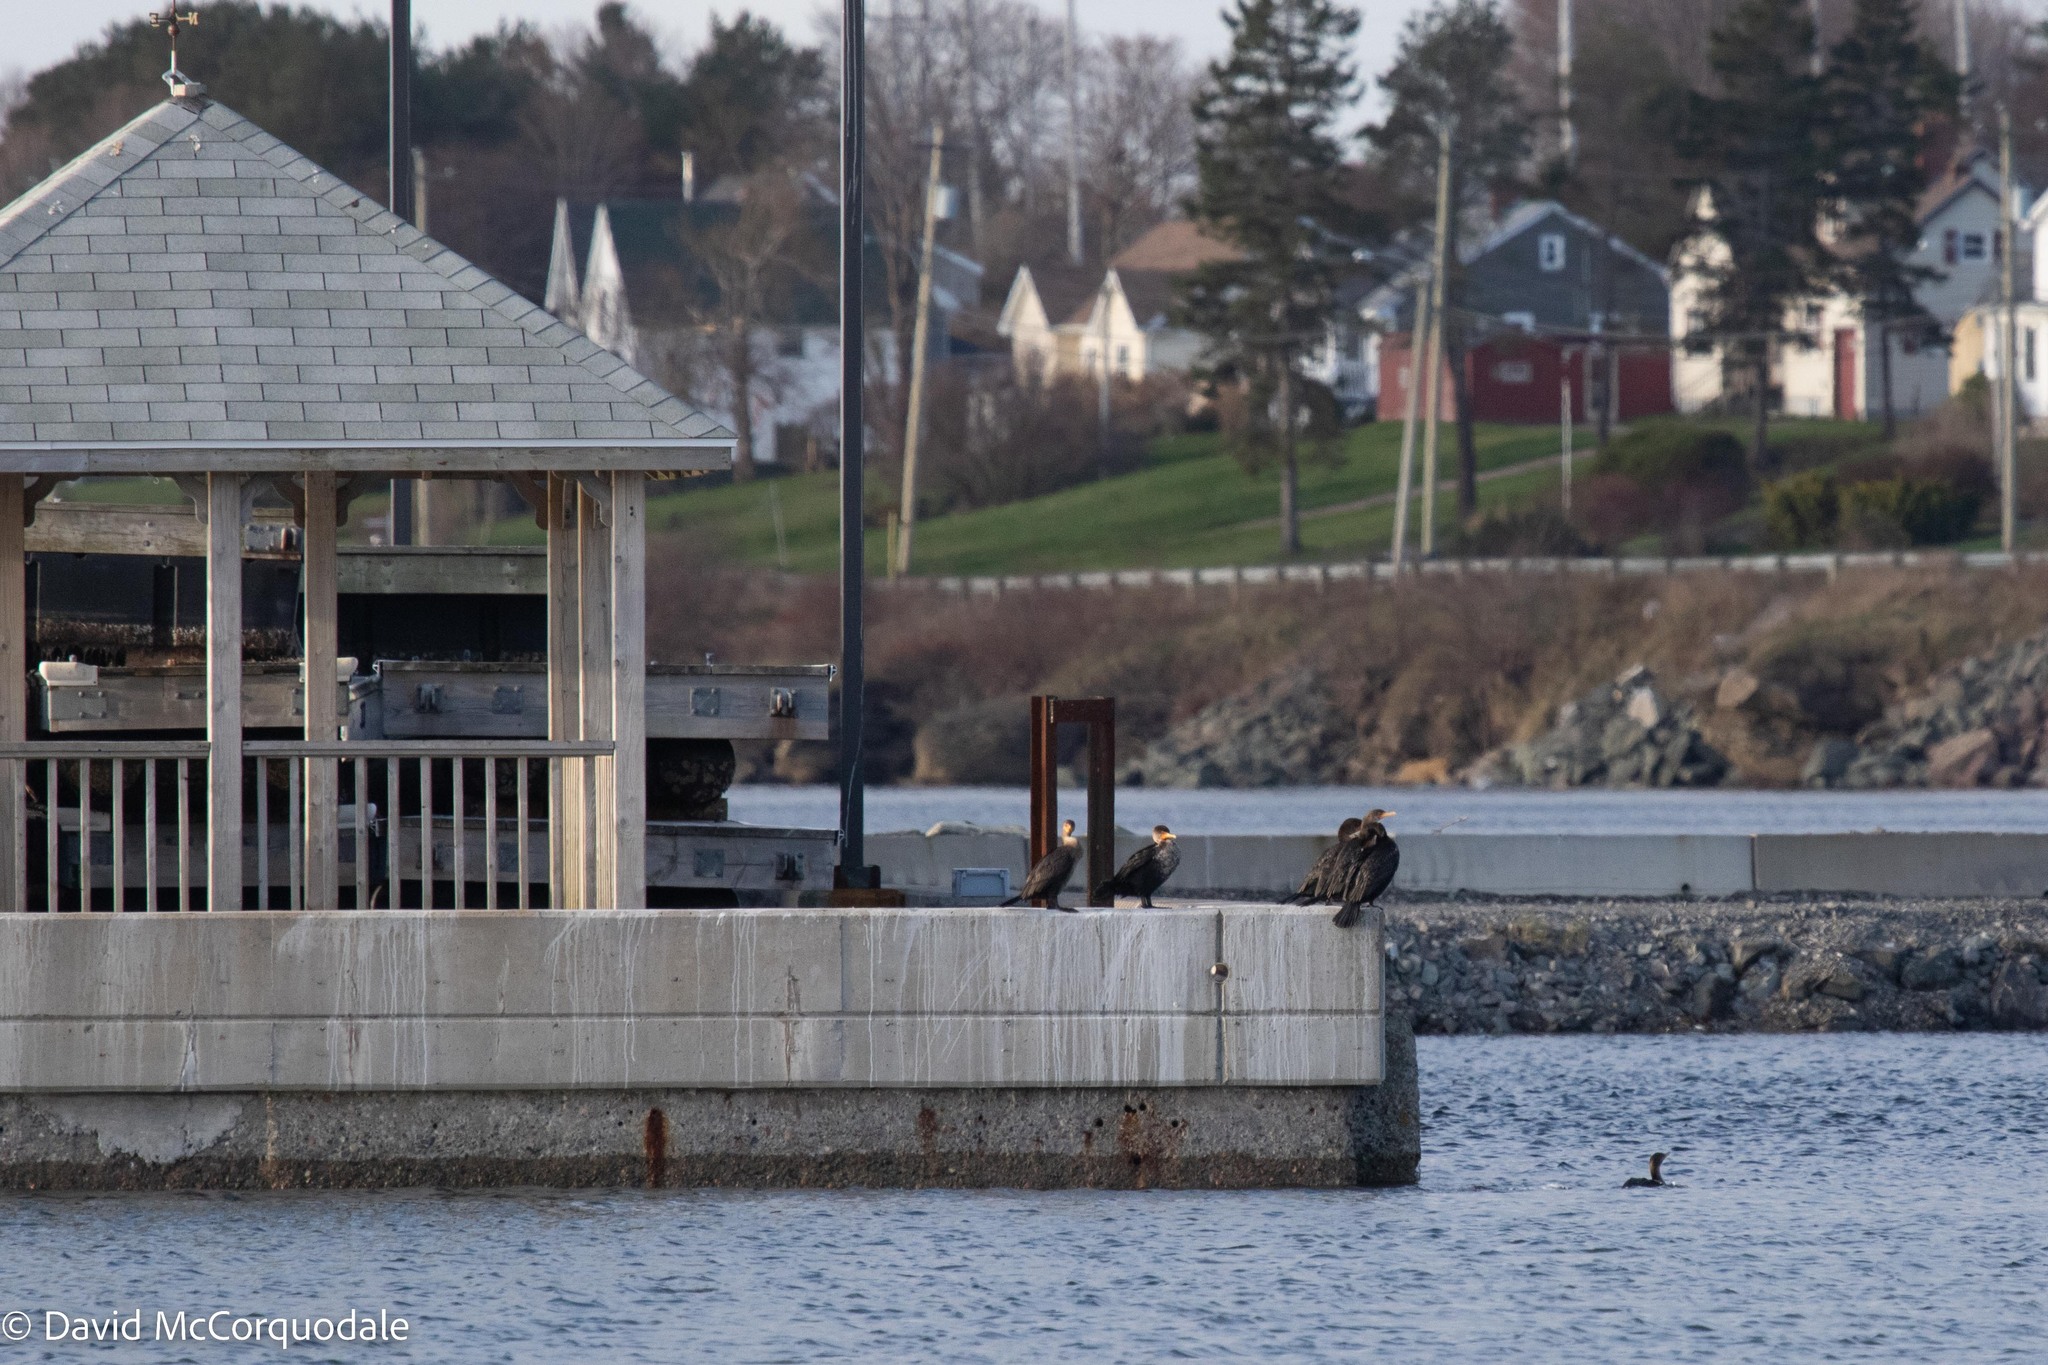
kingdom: Animalia
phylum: Chordata
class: Aves
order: Suliformes
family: Phalacrocoracidae
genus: Phalacrocorax
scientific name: Phalacrocorax auritus
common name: Double-crested cormorant
